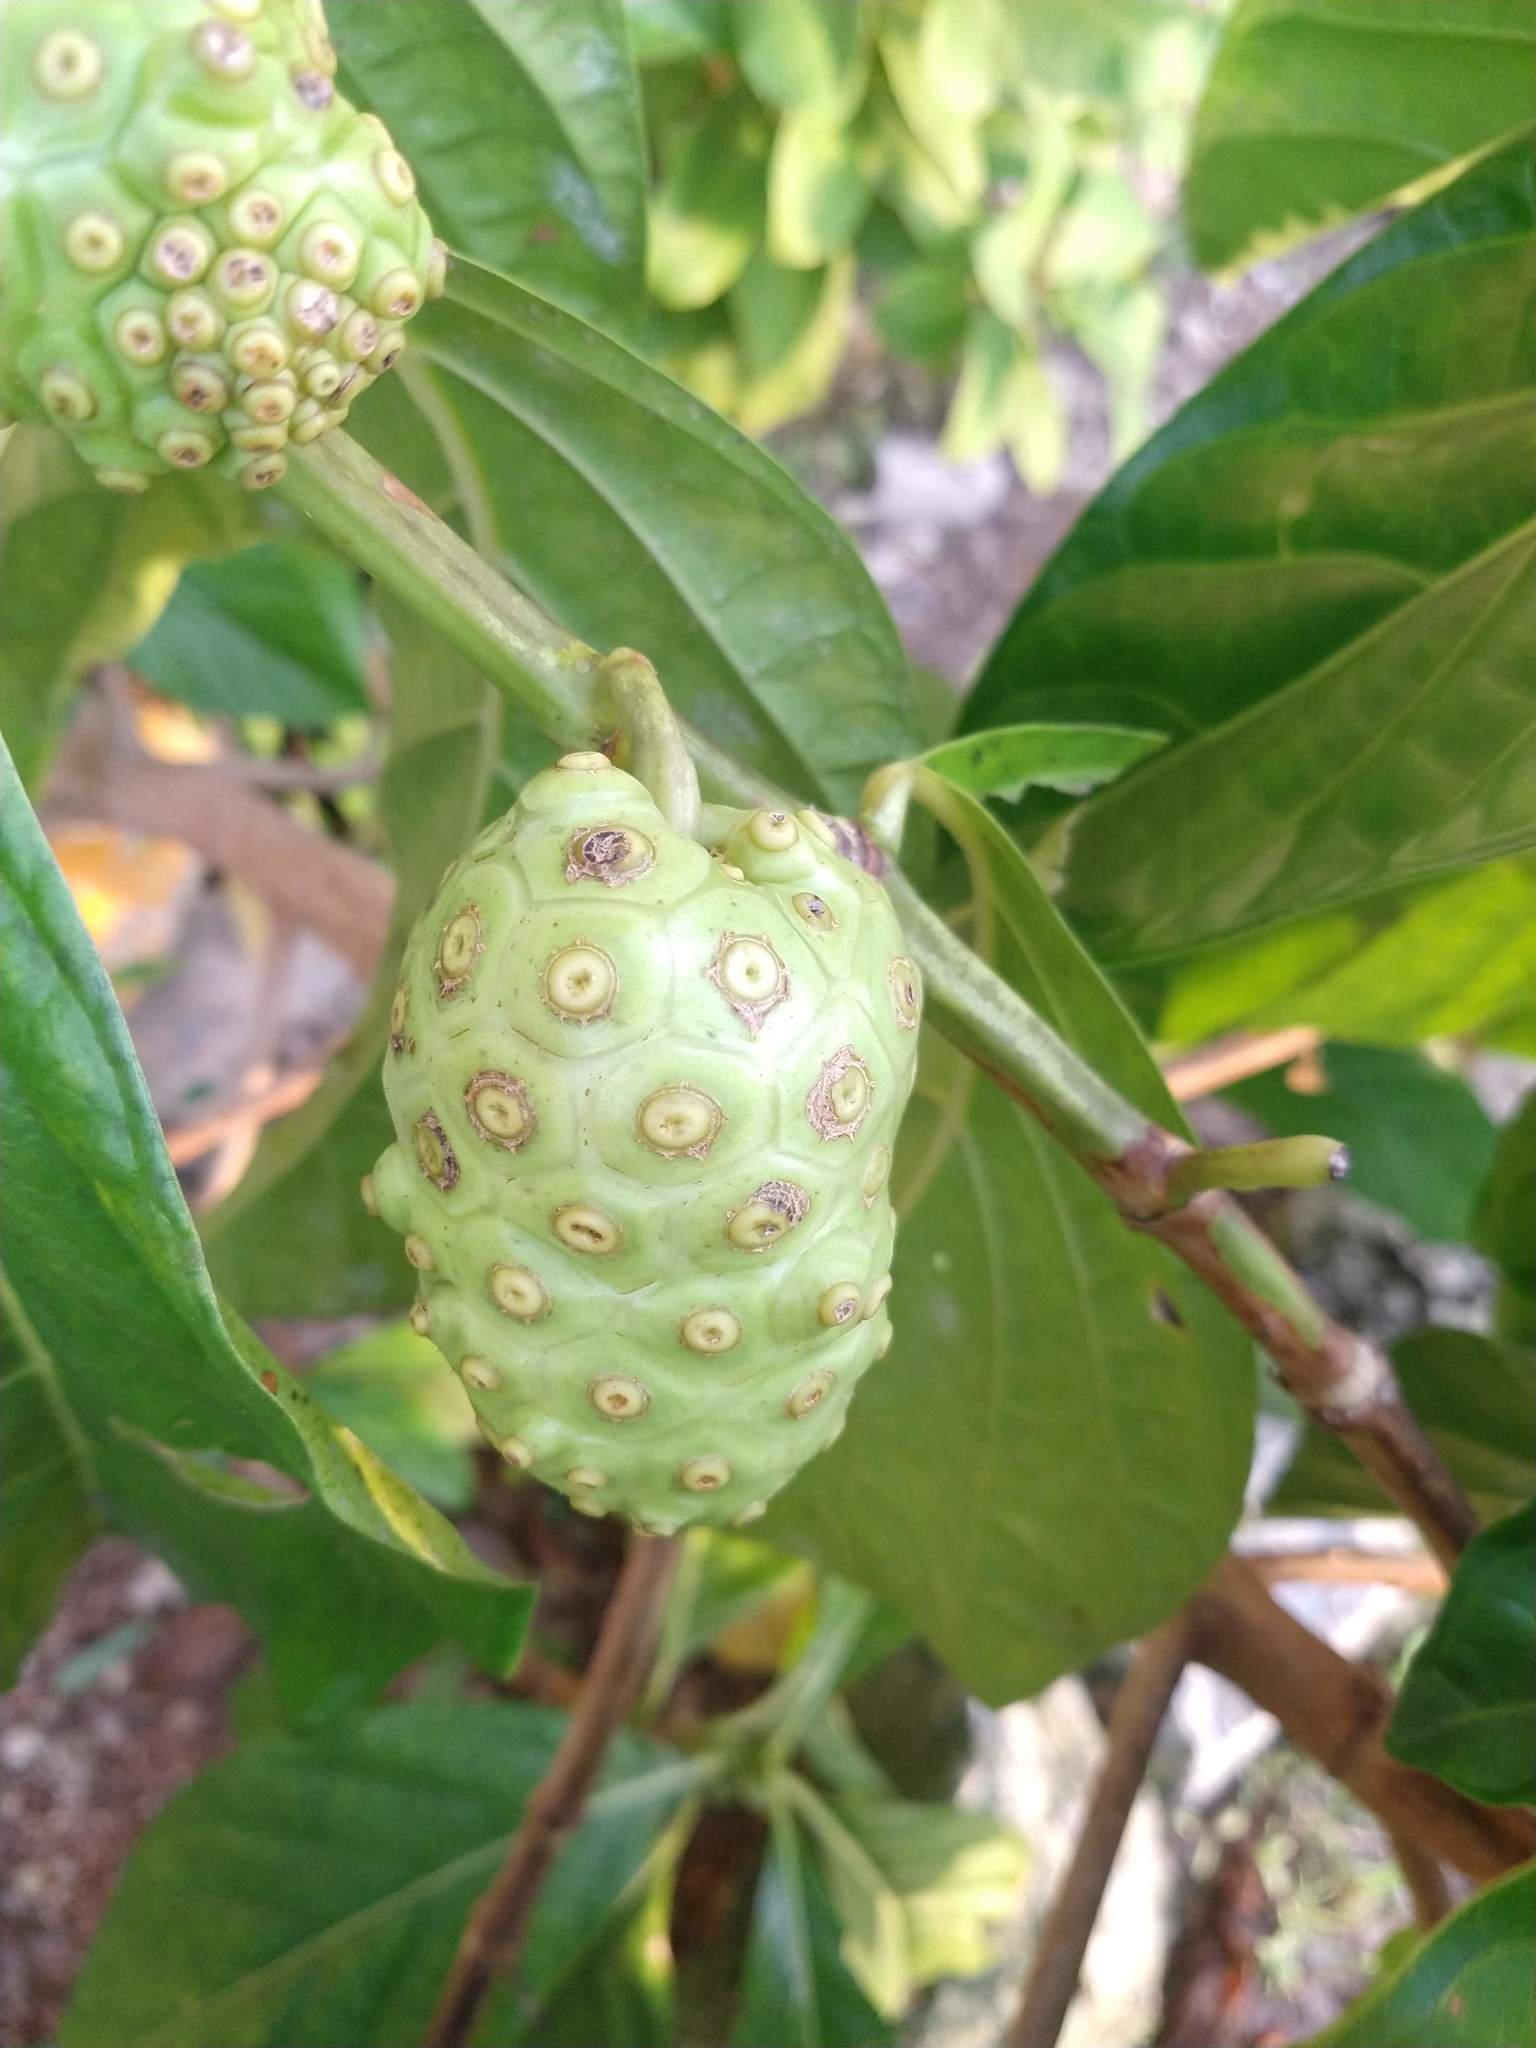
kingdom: Plantae
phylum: Tracheophyta
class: Magnoliopsida
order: Gentianales
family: Rubiaceae
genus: Morinda
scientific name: Morinda citrifolia
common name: Indian-mulberry
